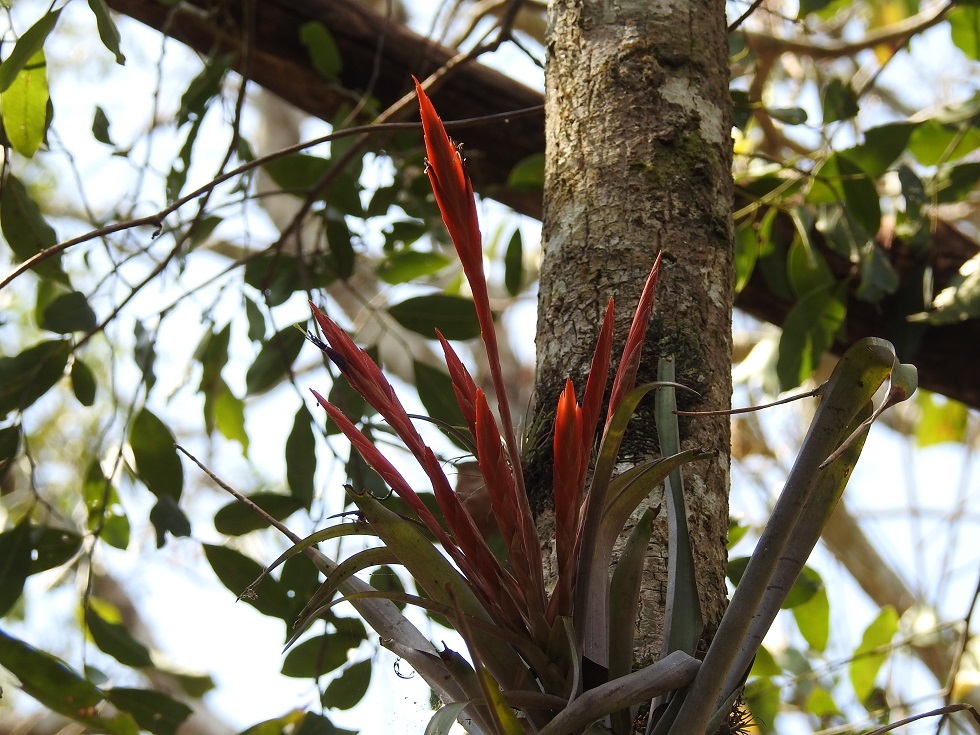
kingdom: Plantae
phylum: Tracheophyta
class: Liliopsida
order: Poales
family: Bromeliaceae
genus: Tillandsia
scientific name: Tillandsia flabellata
